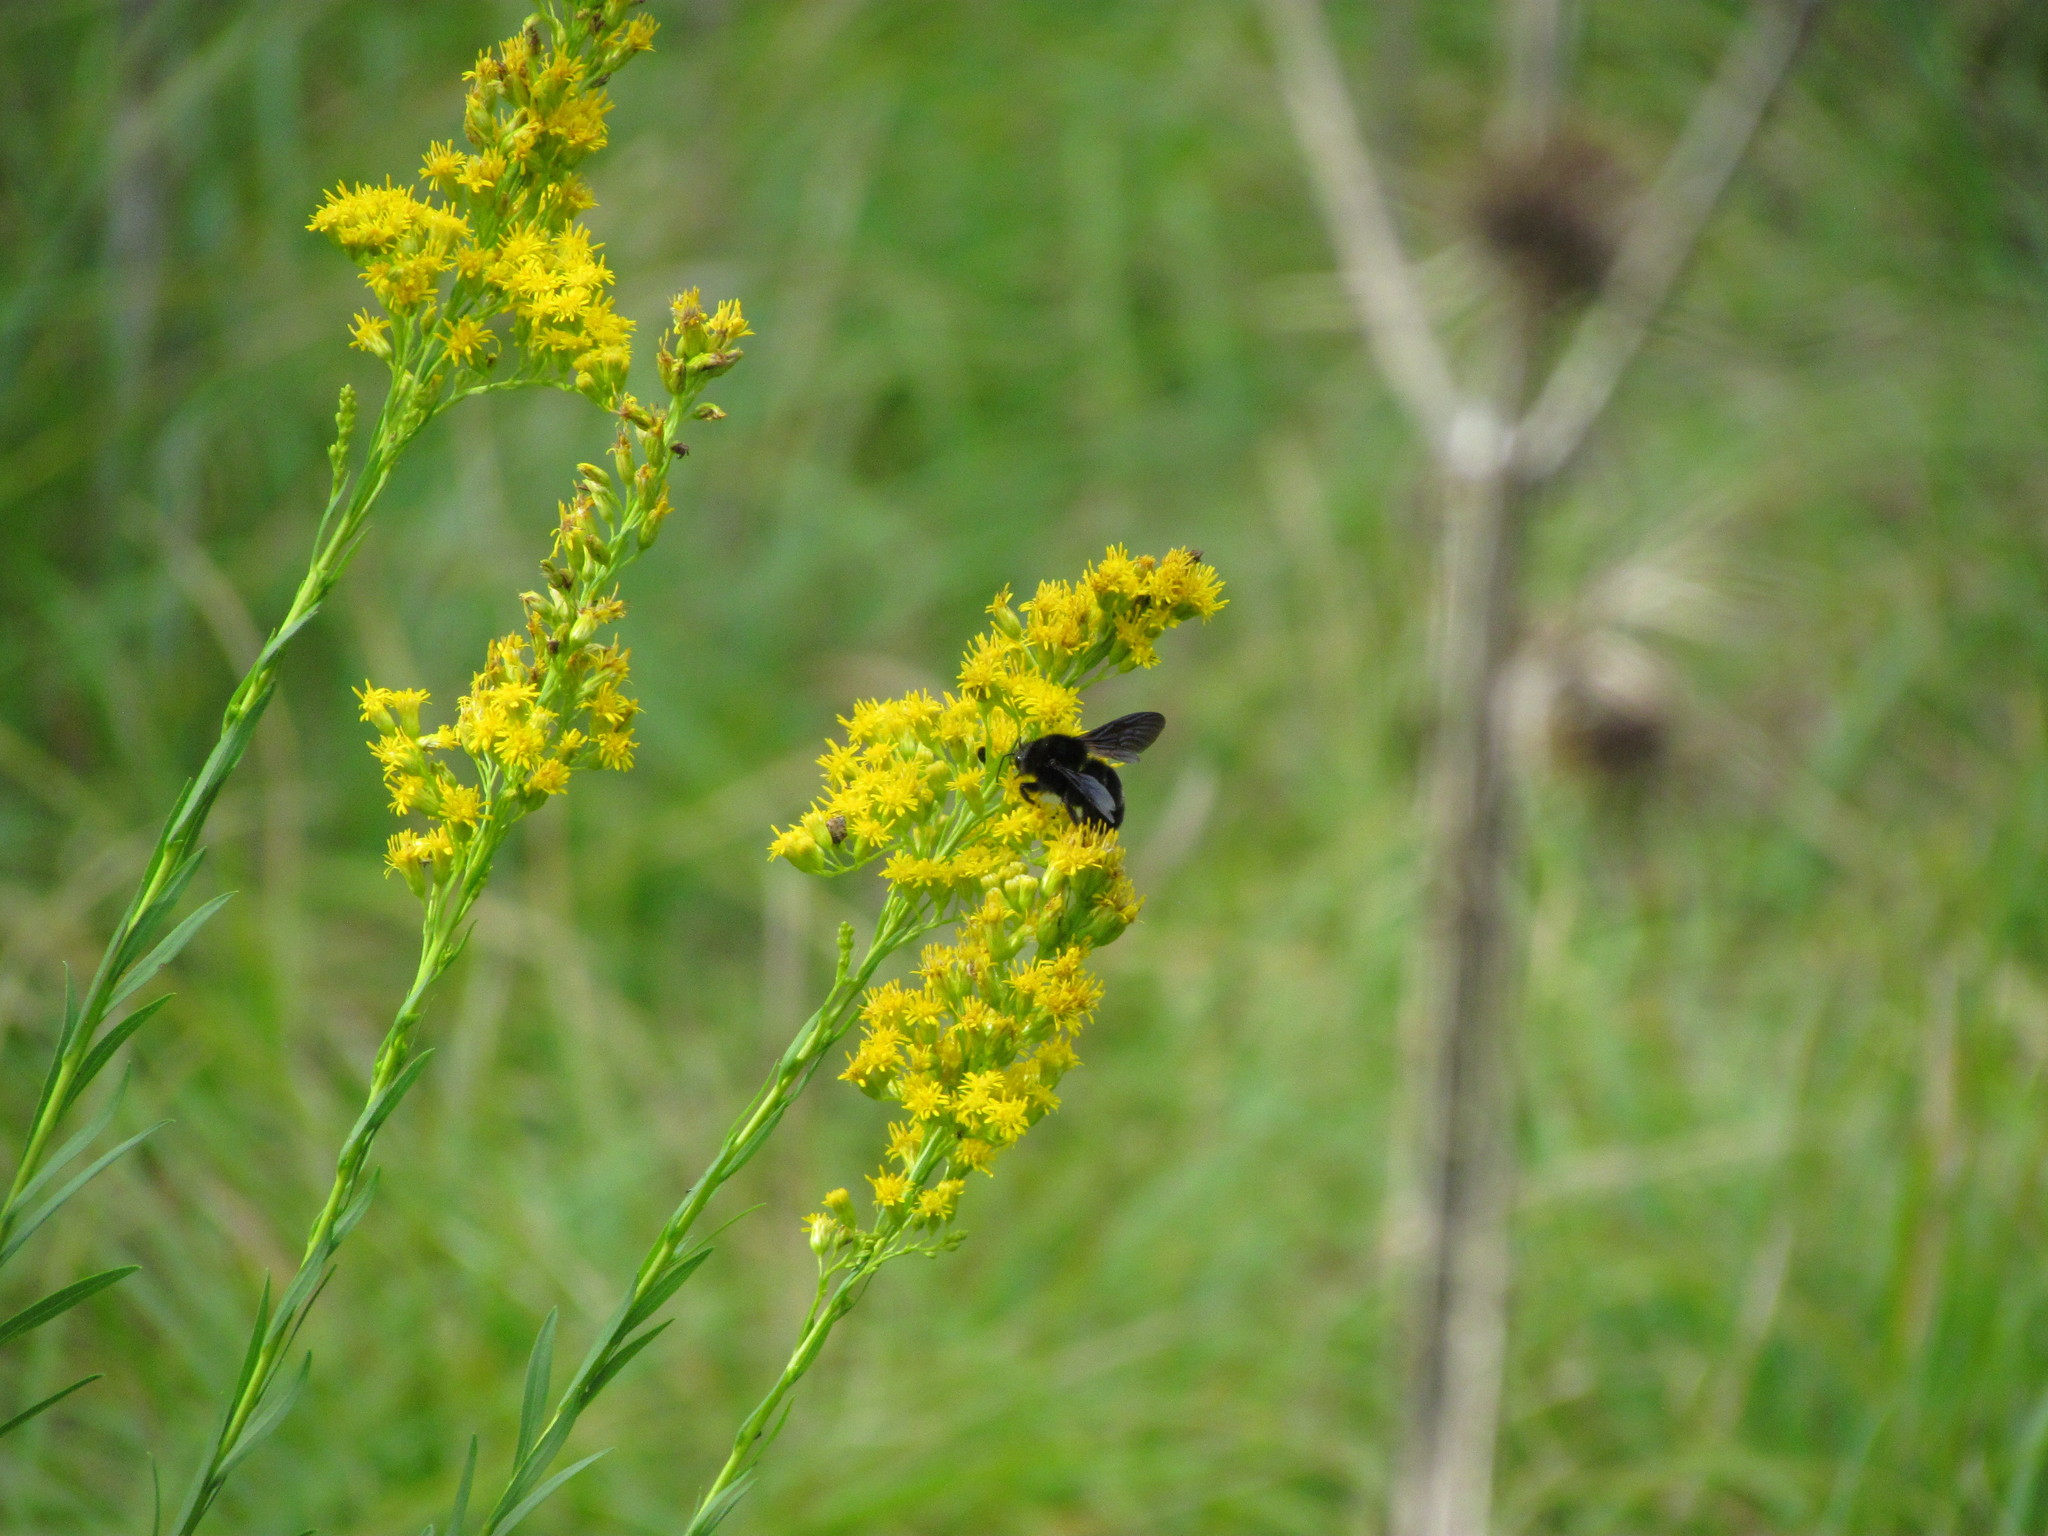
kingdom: Animalia
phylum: Arthropoda
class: Insecta
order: Hymenoptera
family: Apidae
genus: Bombus
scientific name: Bombus pauloensis
